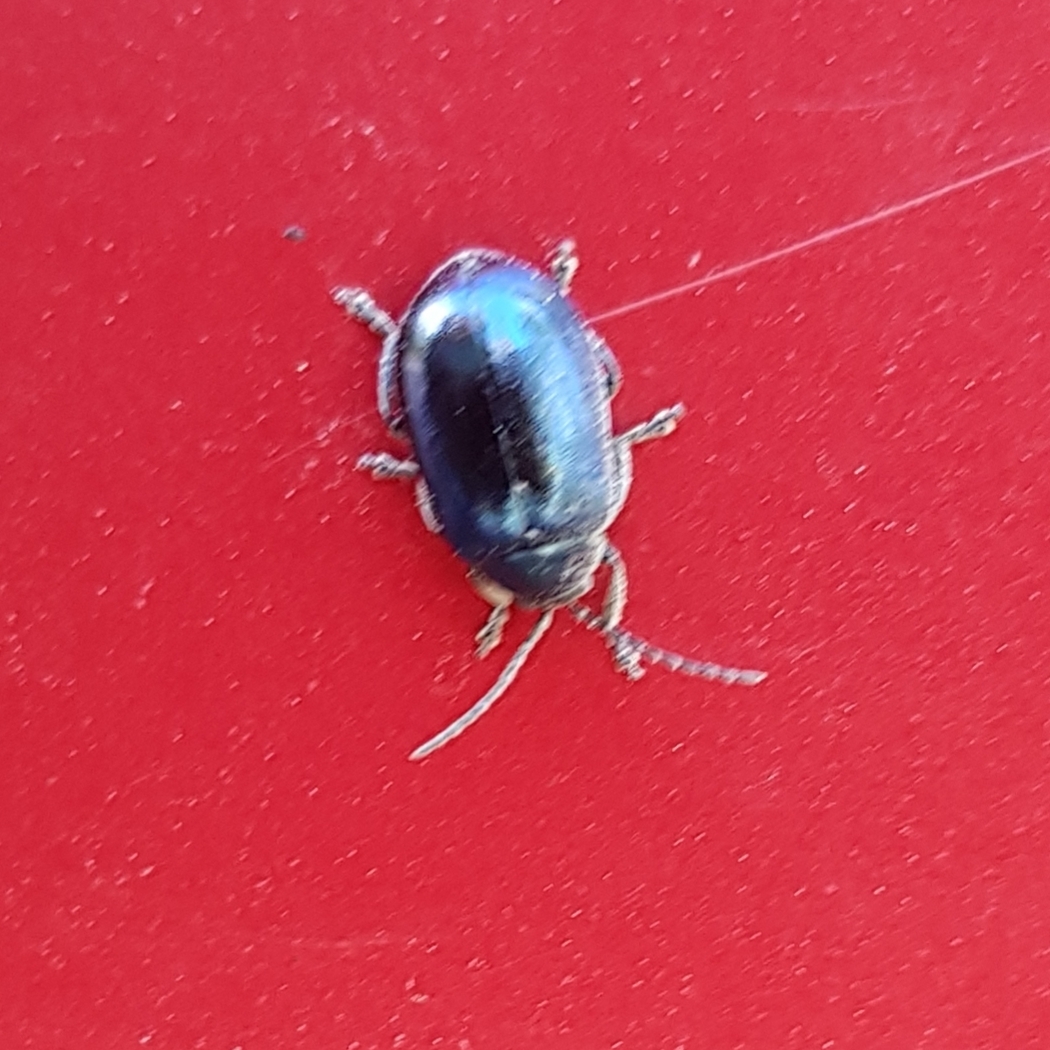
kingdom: Animalia
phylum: Arthropoda
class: Insecta
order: Coleoptera
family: Chrysomelidae
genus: Agelastica
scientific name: Agelastica alni
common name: Alder leaf beetle
